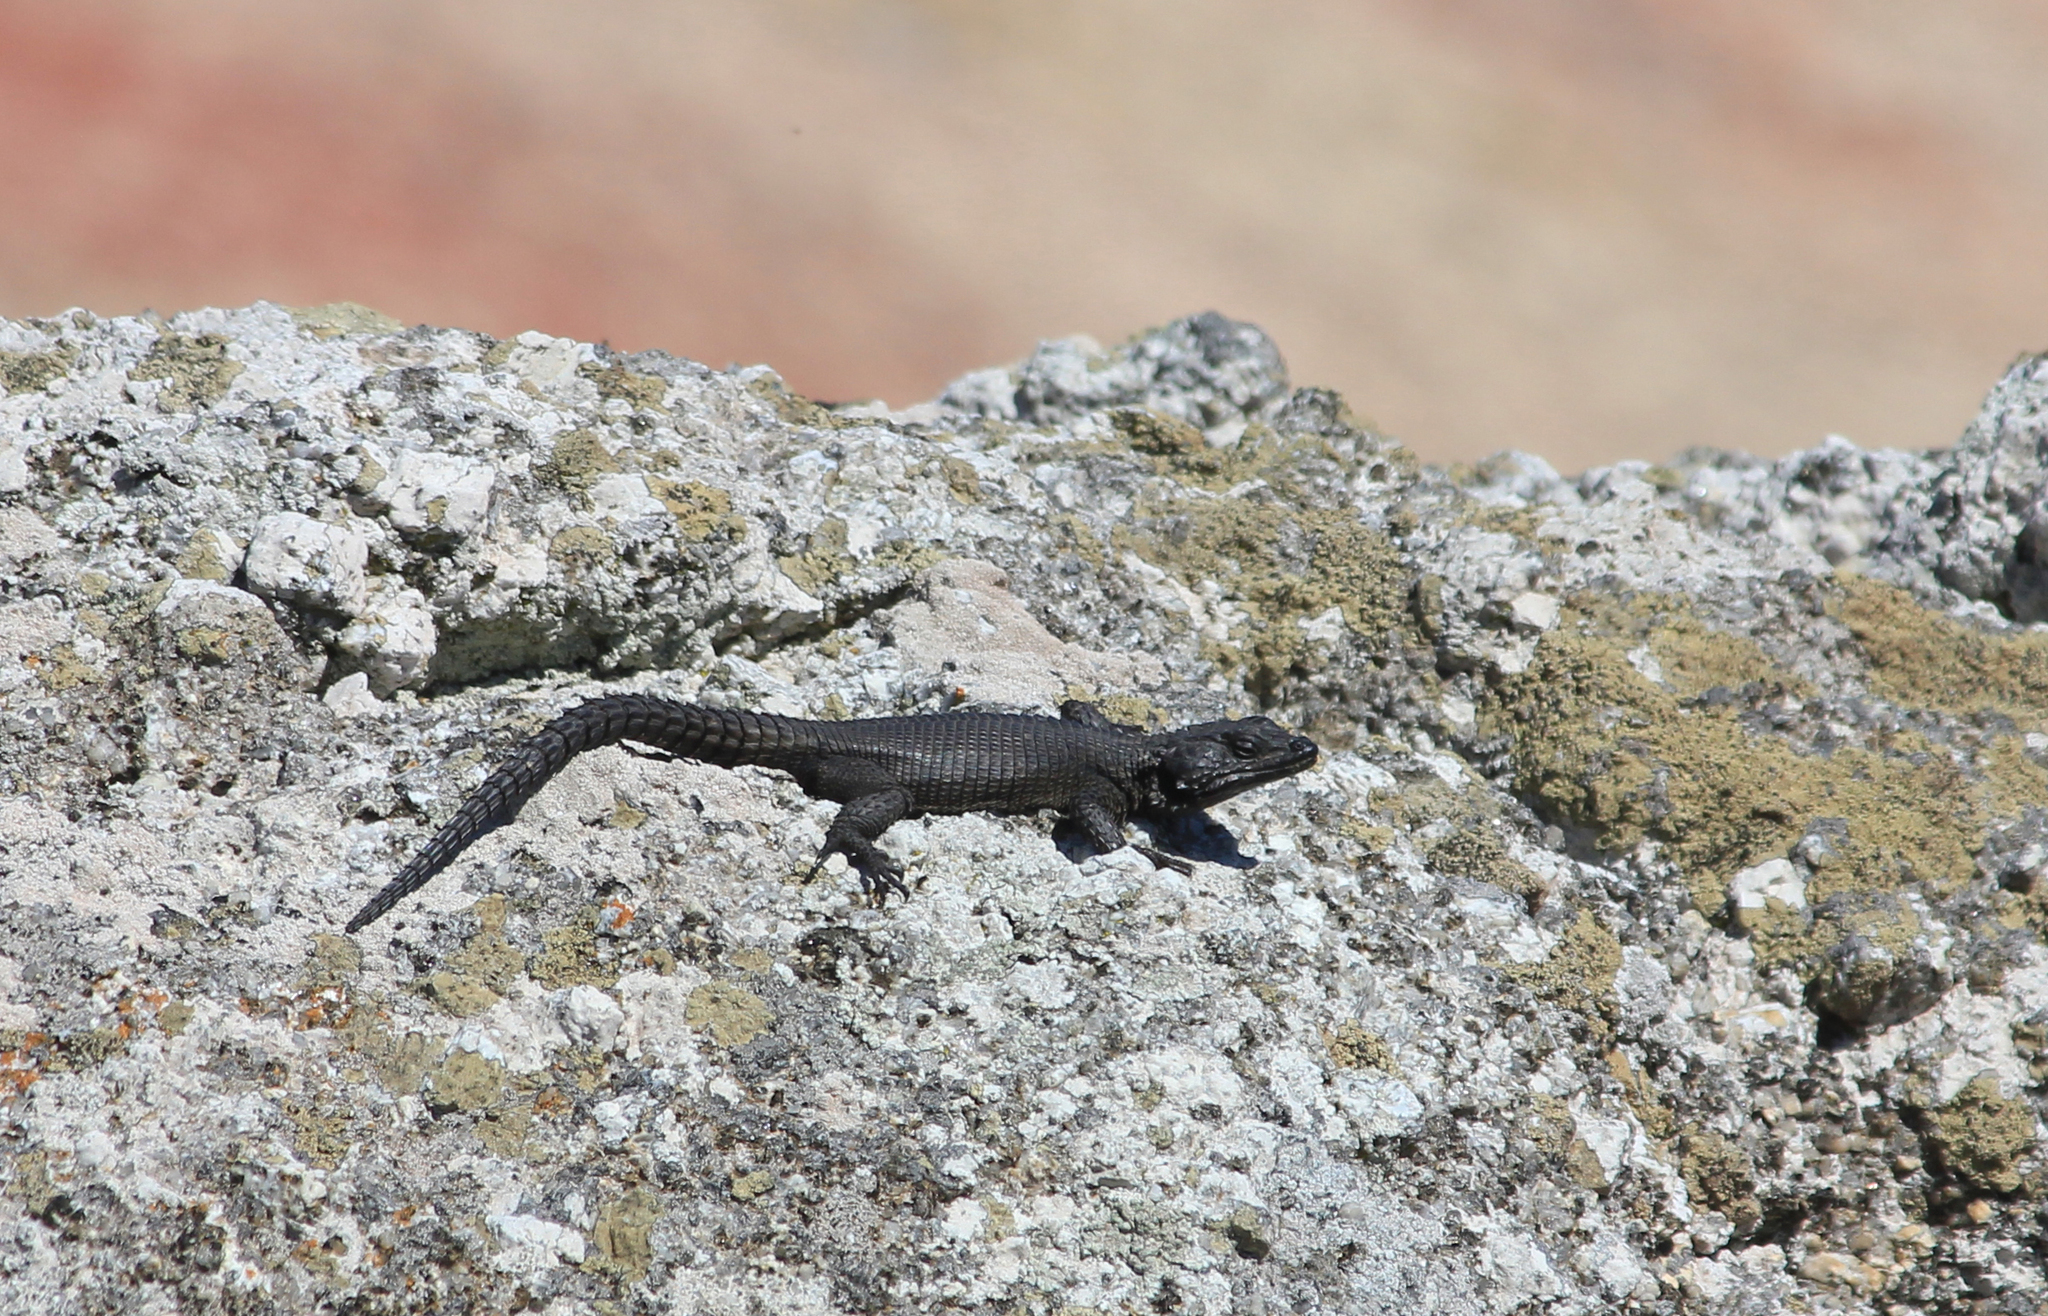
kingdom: Animalia
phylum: Chordata
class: Squamata
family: Cordylidae
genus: Karusasaurus
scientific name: Karusasaurus polyzonus
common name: Karoo girdled lizard
